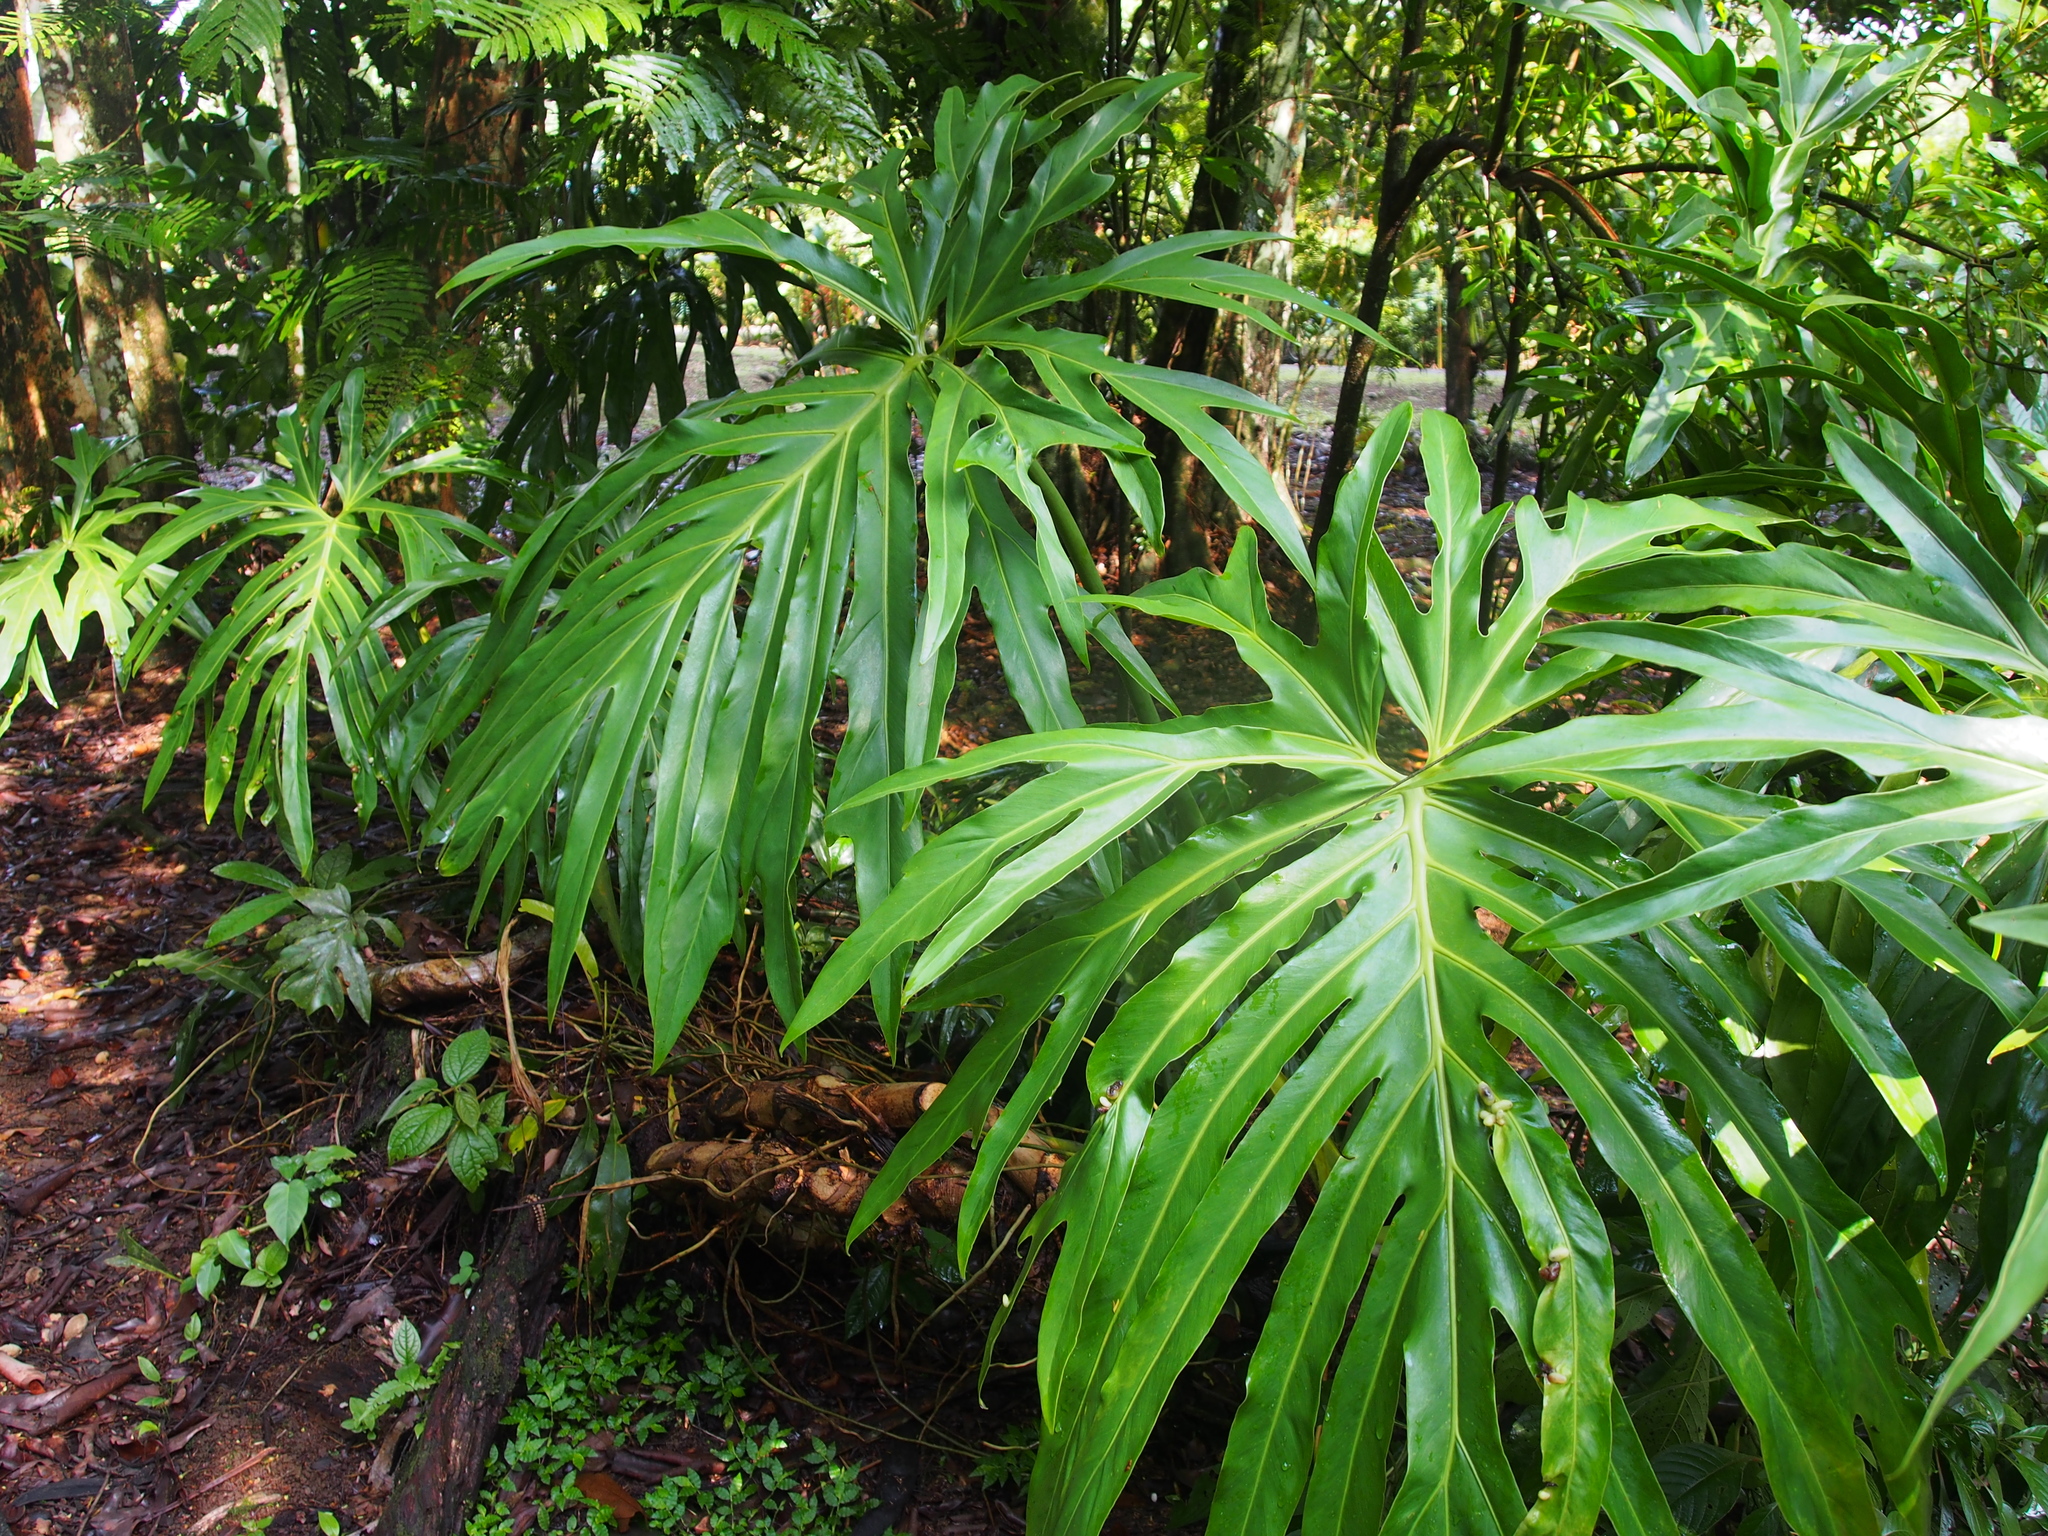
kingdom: Plantae
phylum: Tracheophyta
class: Liliopsida
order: Alismatales
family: Araceae
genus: Philodendron
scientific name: Philodendron radiatum
